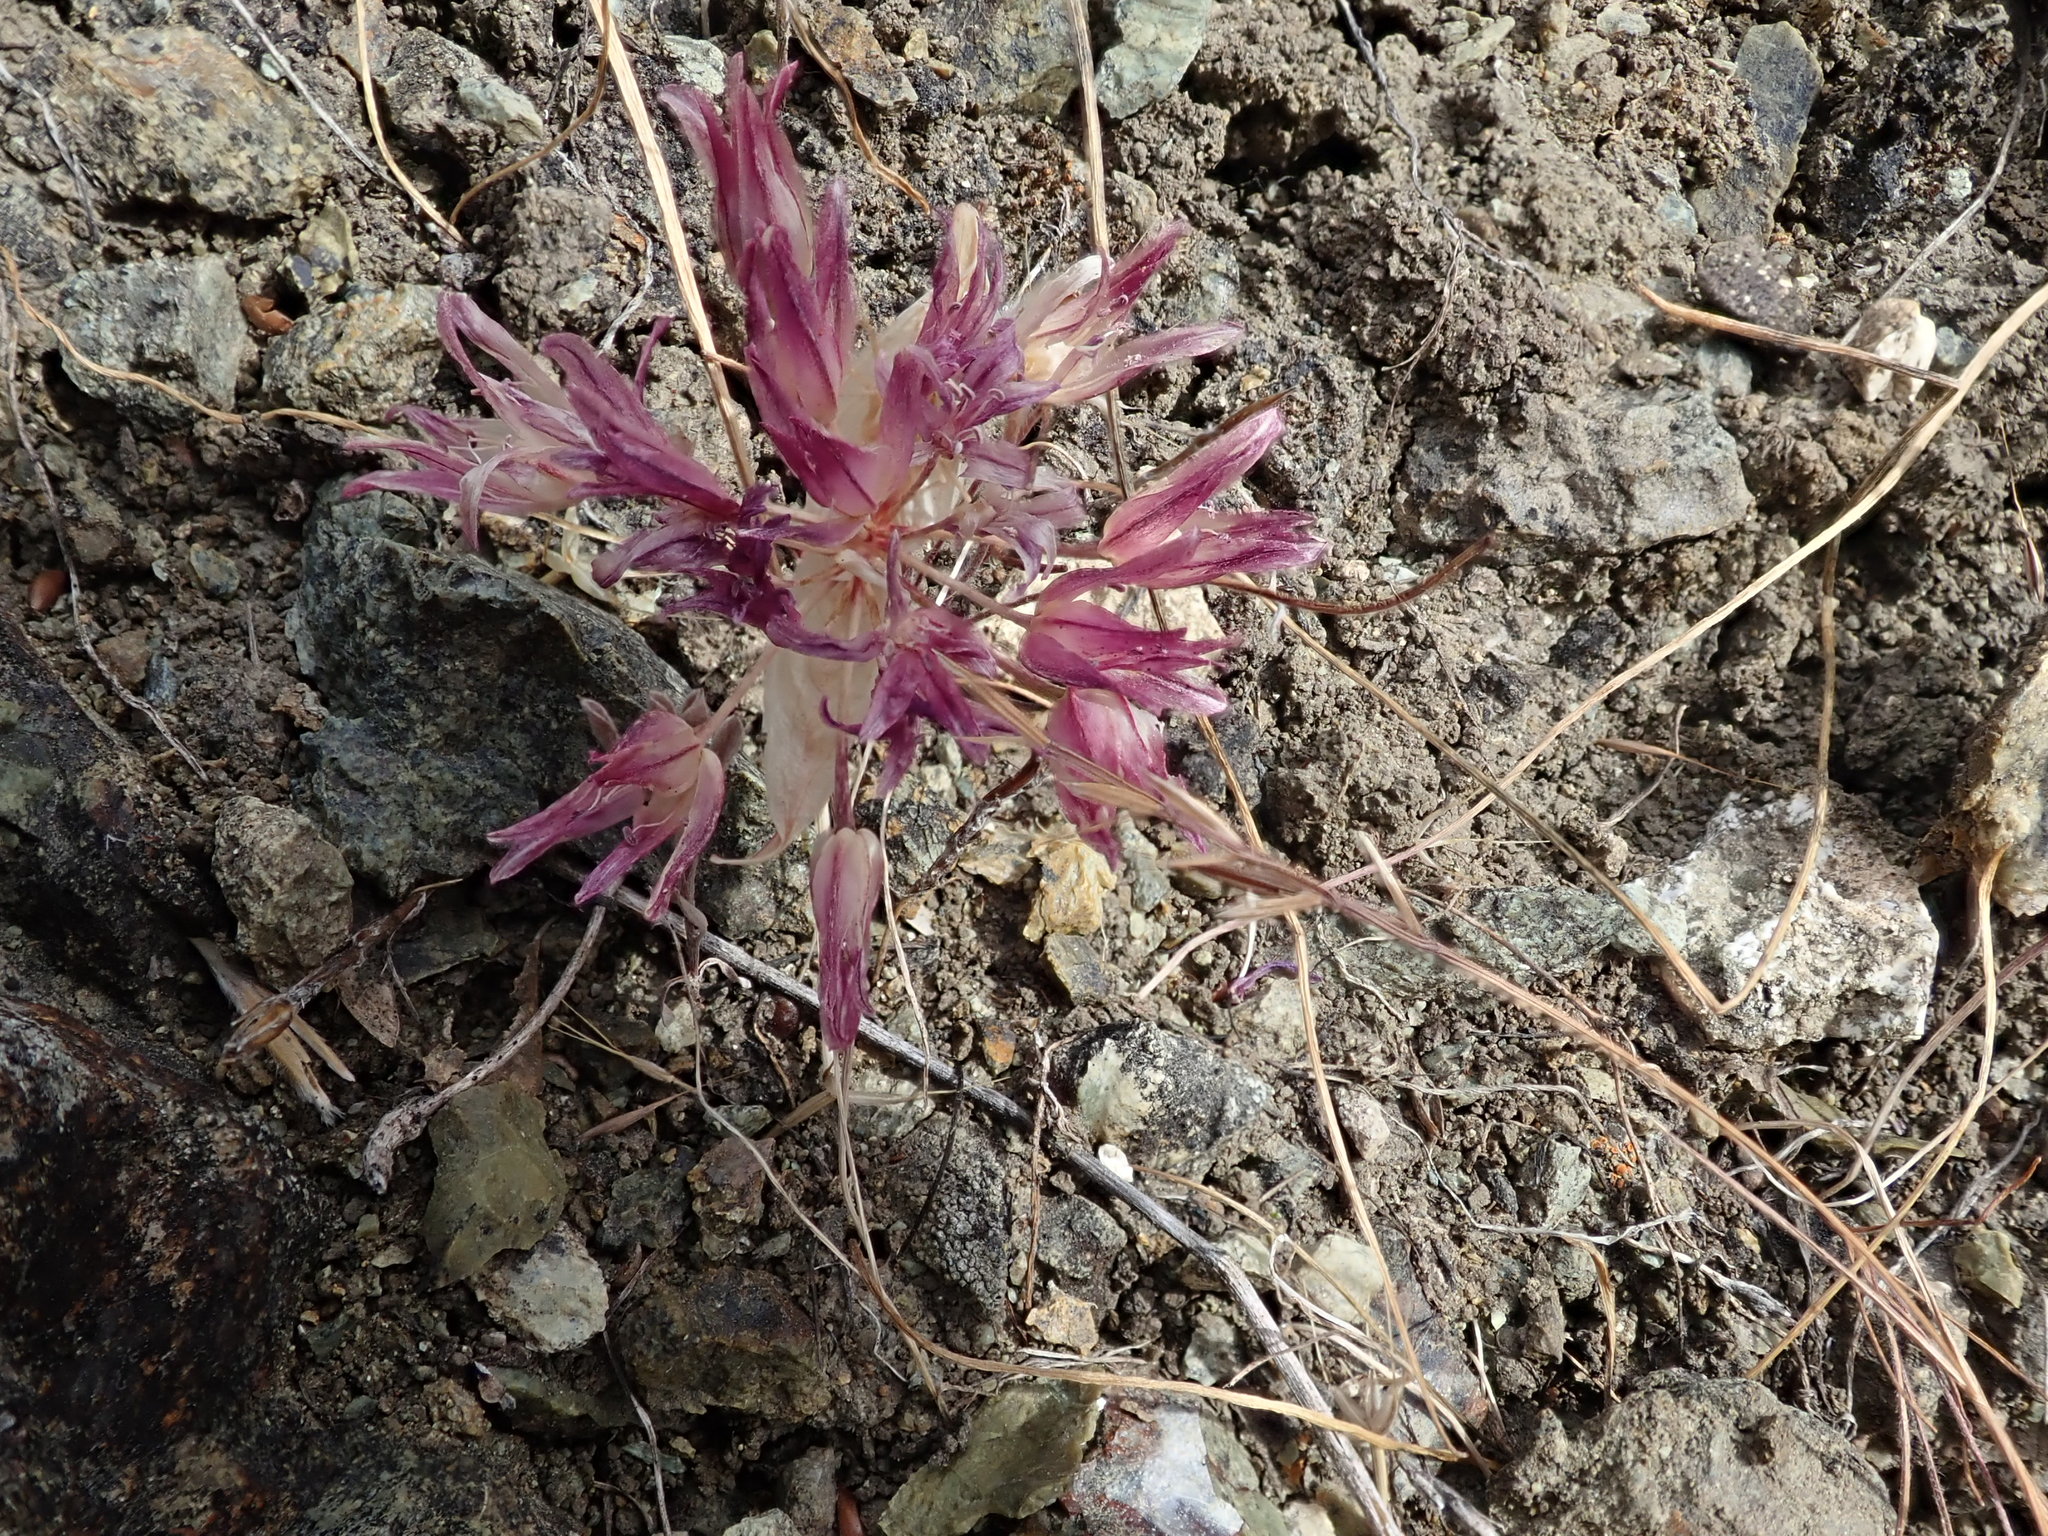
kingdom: Plantae
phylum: Tracheophyta
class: Liliopsida
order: Asparagales
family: Amaryllidaceae
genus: Allium
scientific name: Allium falcifolium
